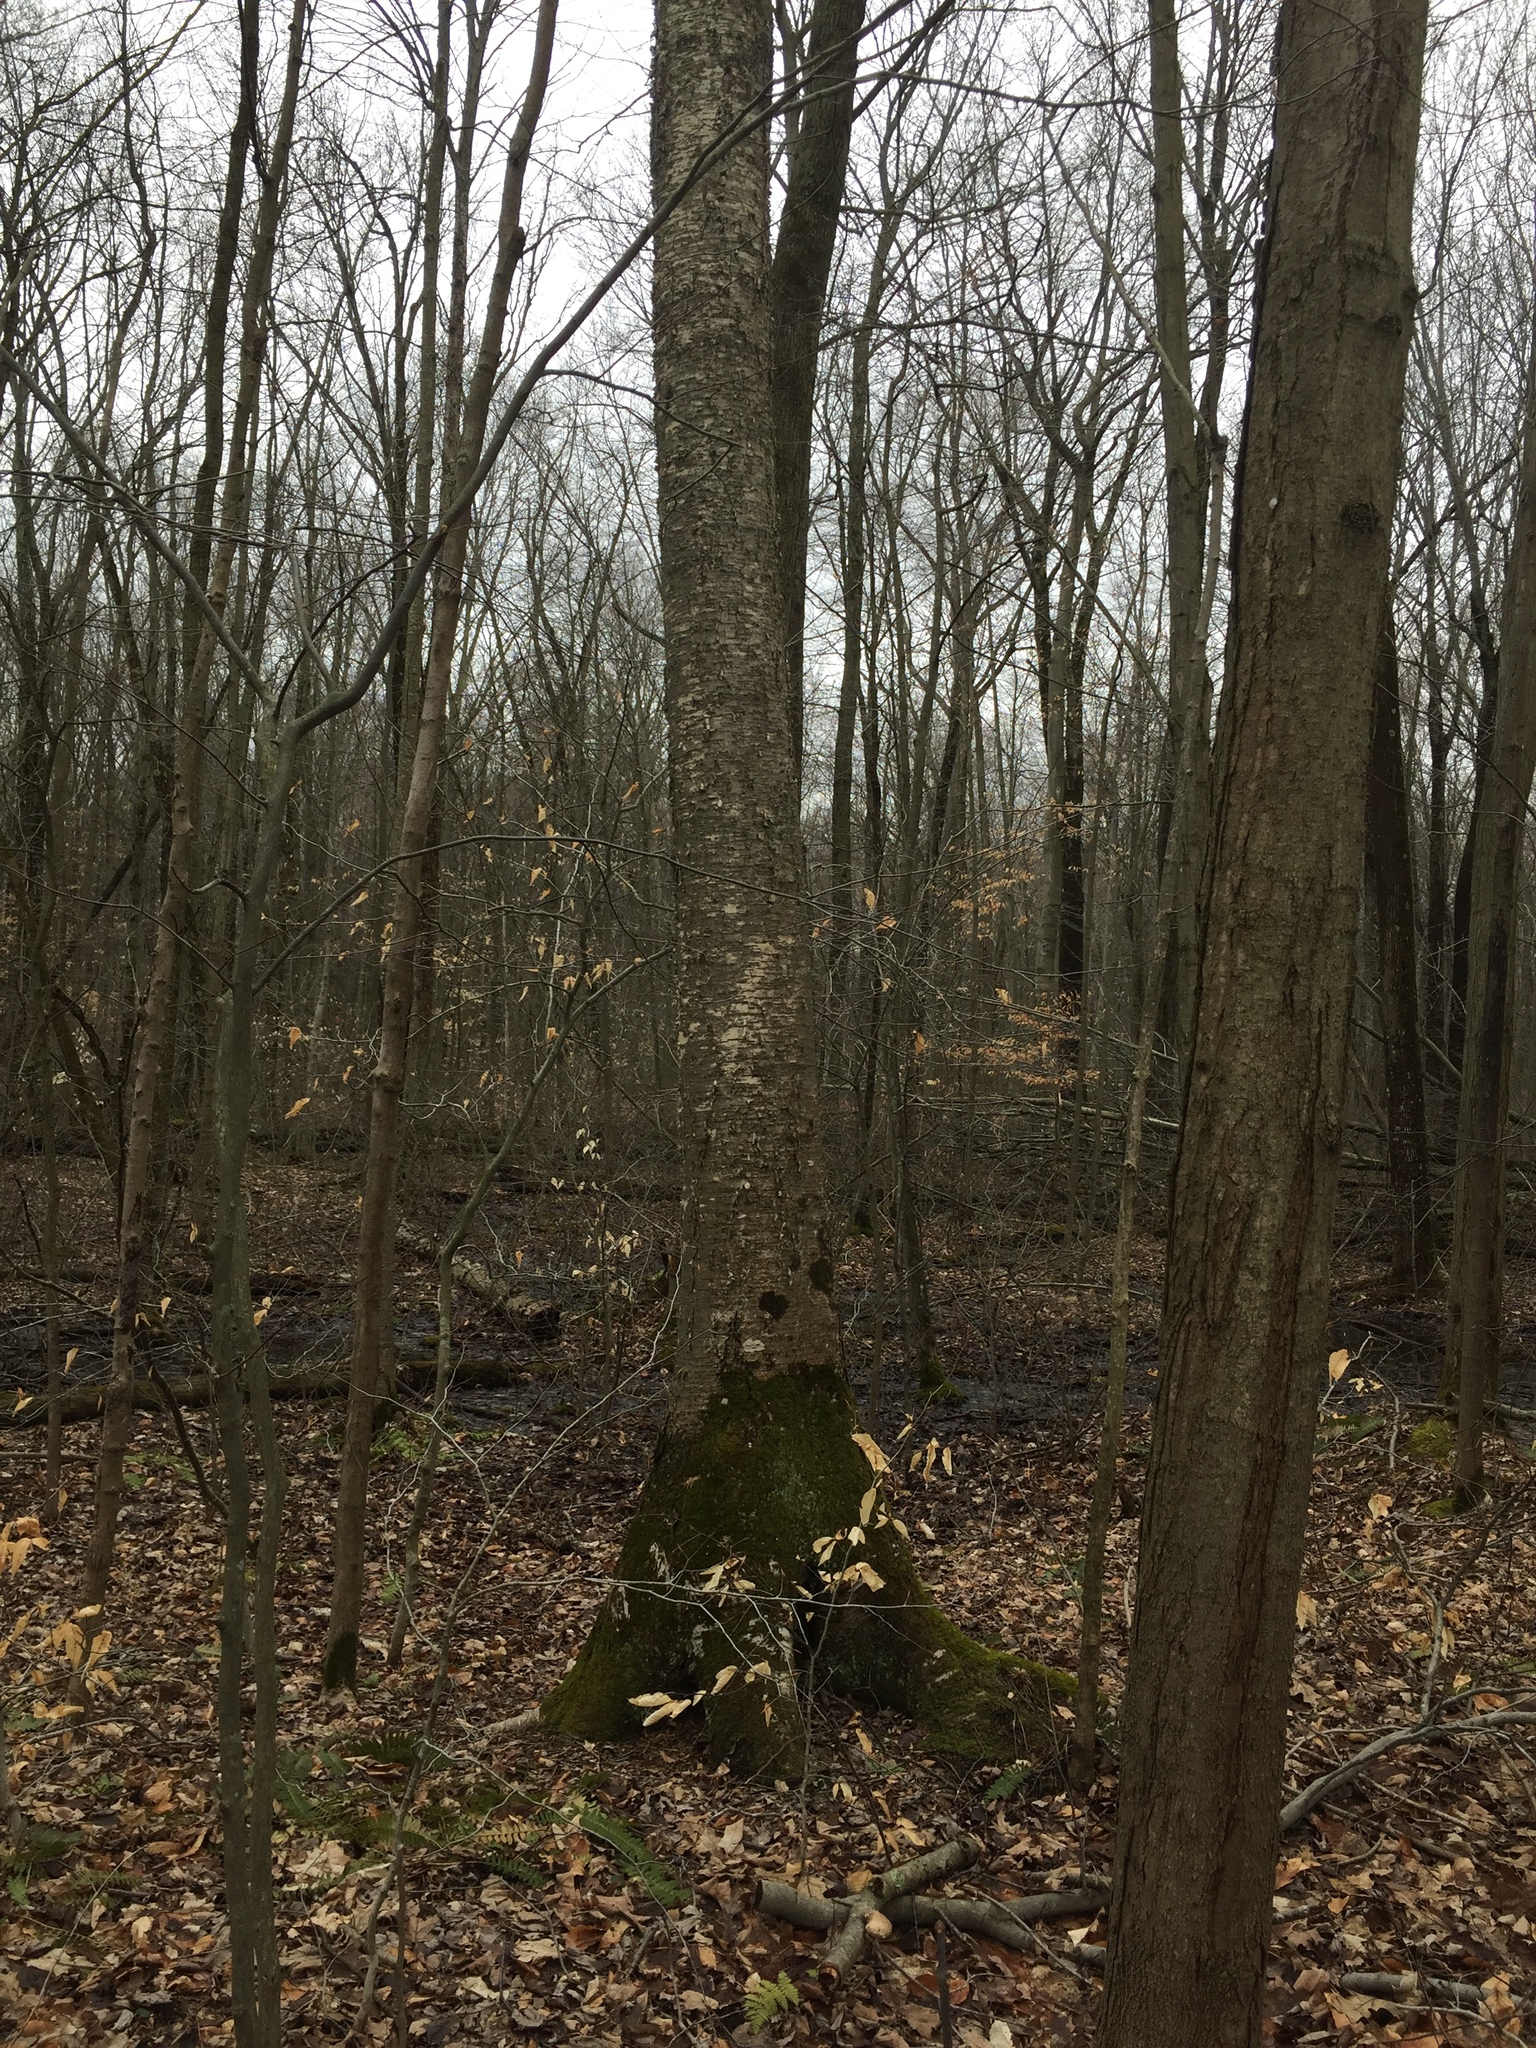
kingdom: Plantae
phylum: Tracheophyta
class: Magnoliopsida
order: Fagales
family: Betulaceae
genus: Betula
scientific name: Betula alleghaniensis
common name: Yellow birch
